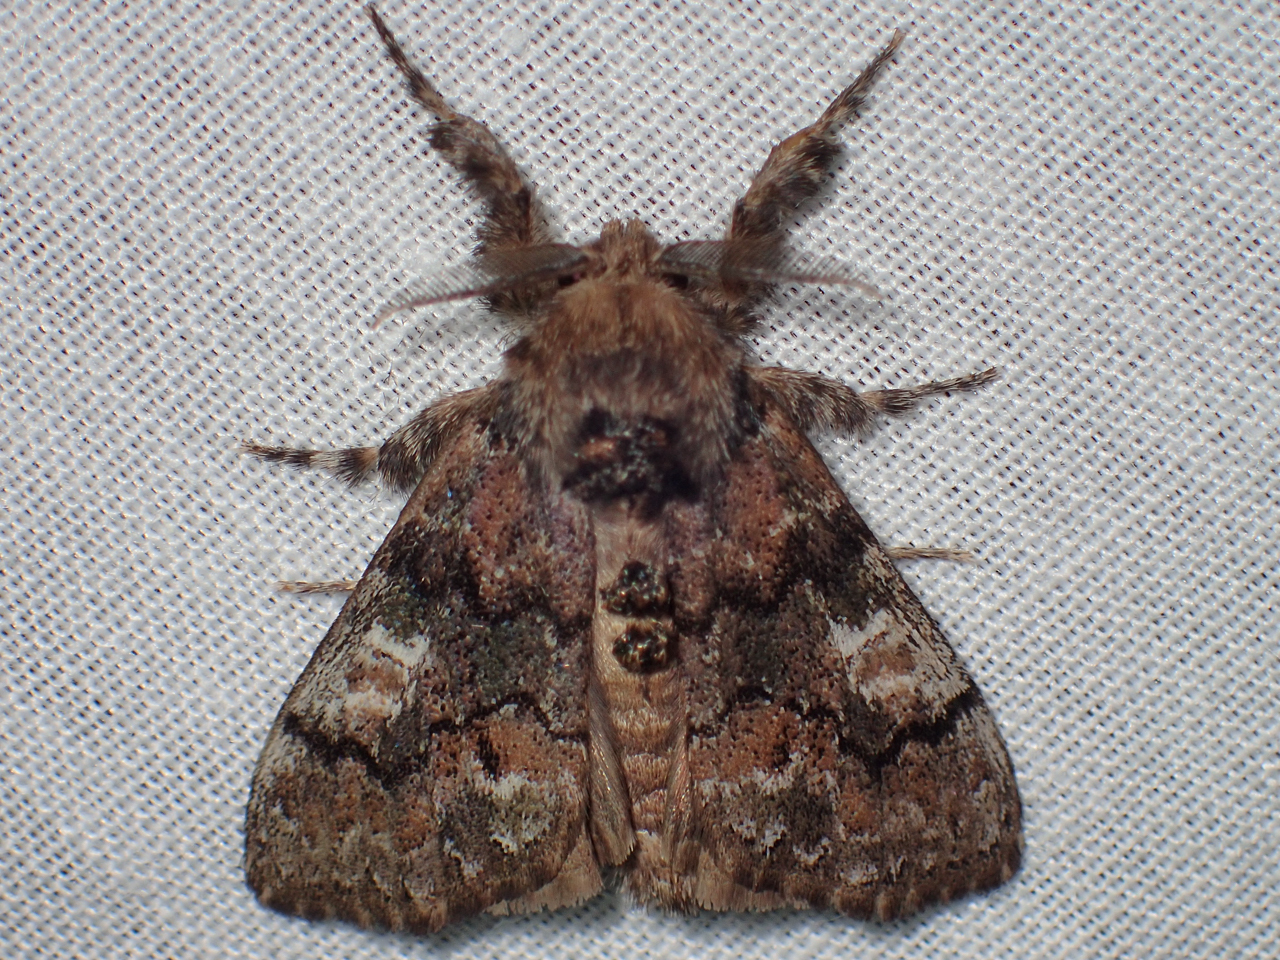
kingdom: Animalia
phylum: Arthropoda
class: Insecta
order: Lepidoptera
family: Erebidae
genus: Dasychira
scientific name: Dasychira manto
